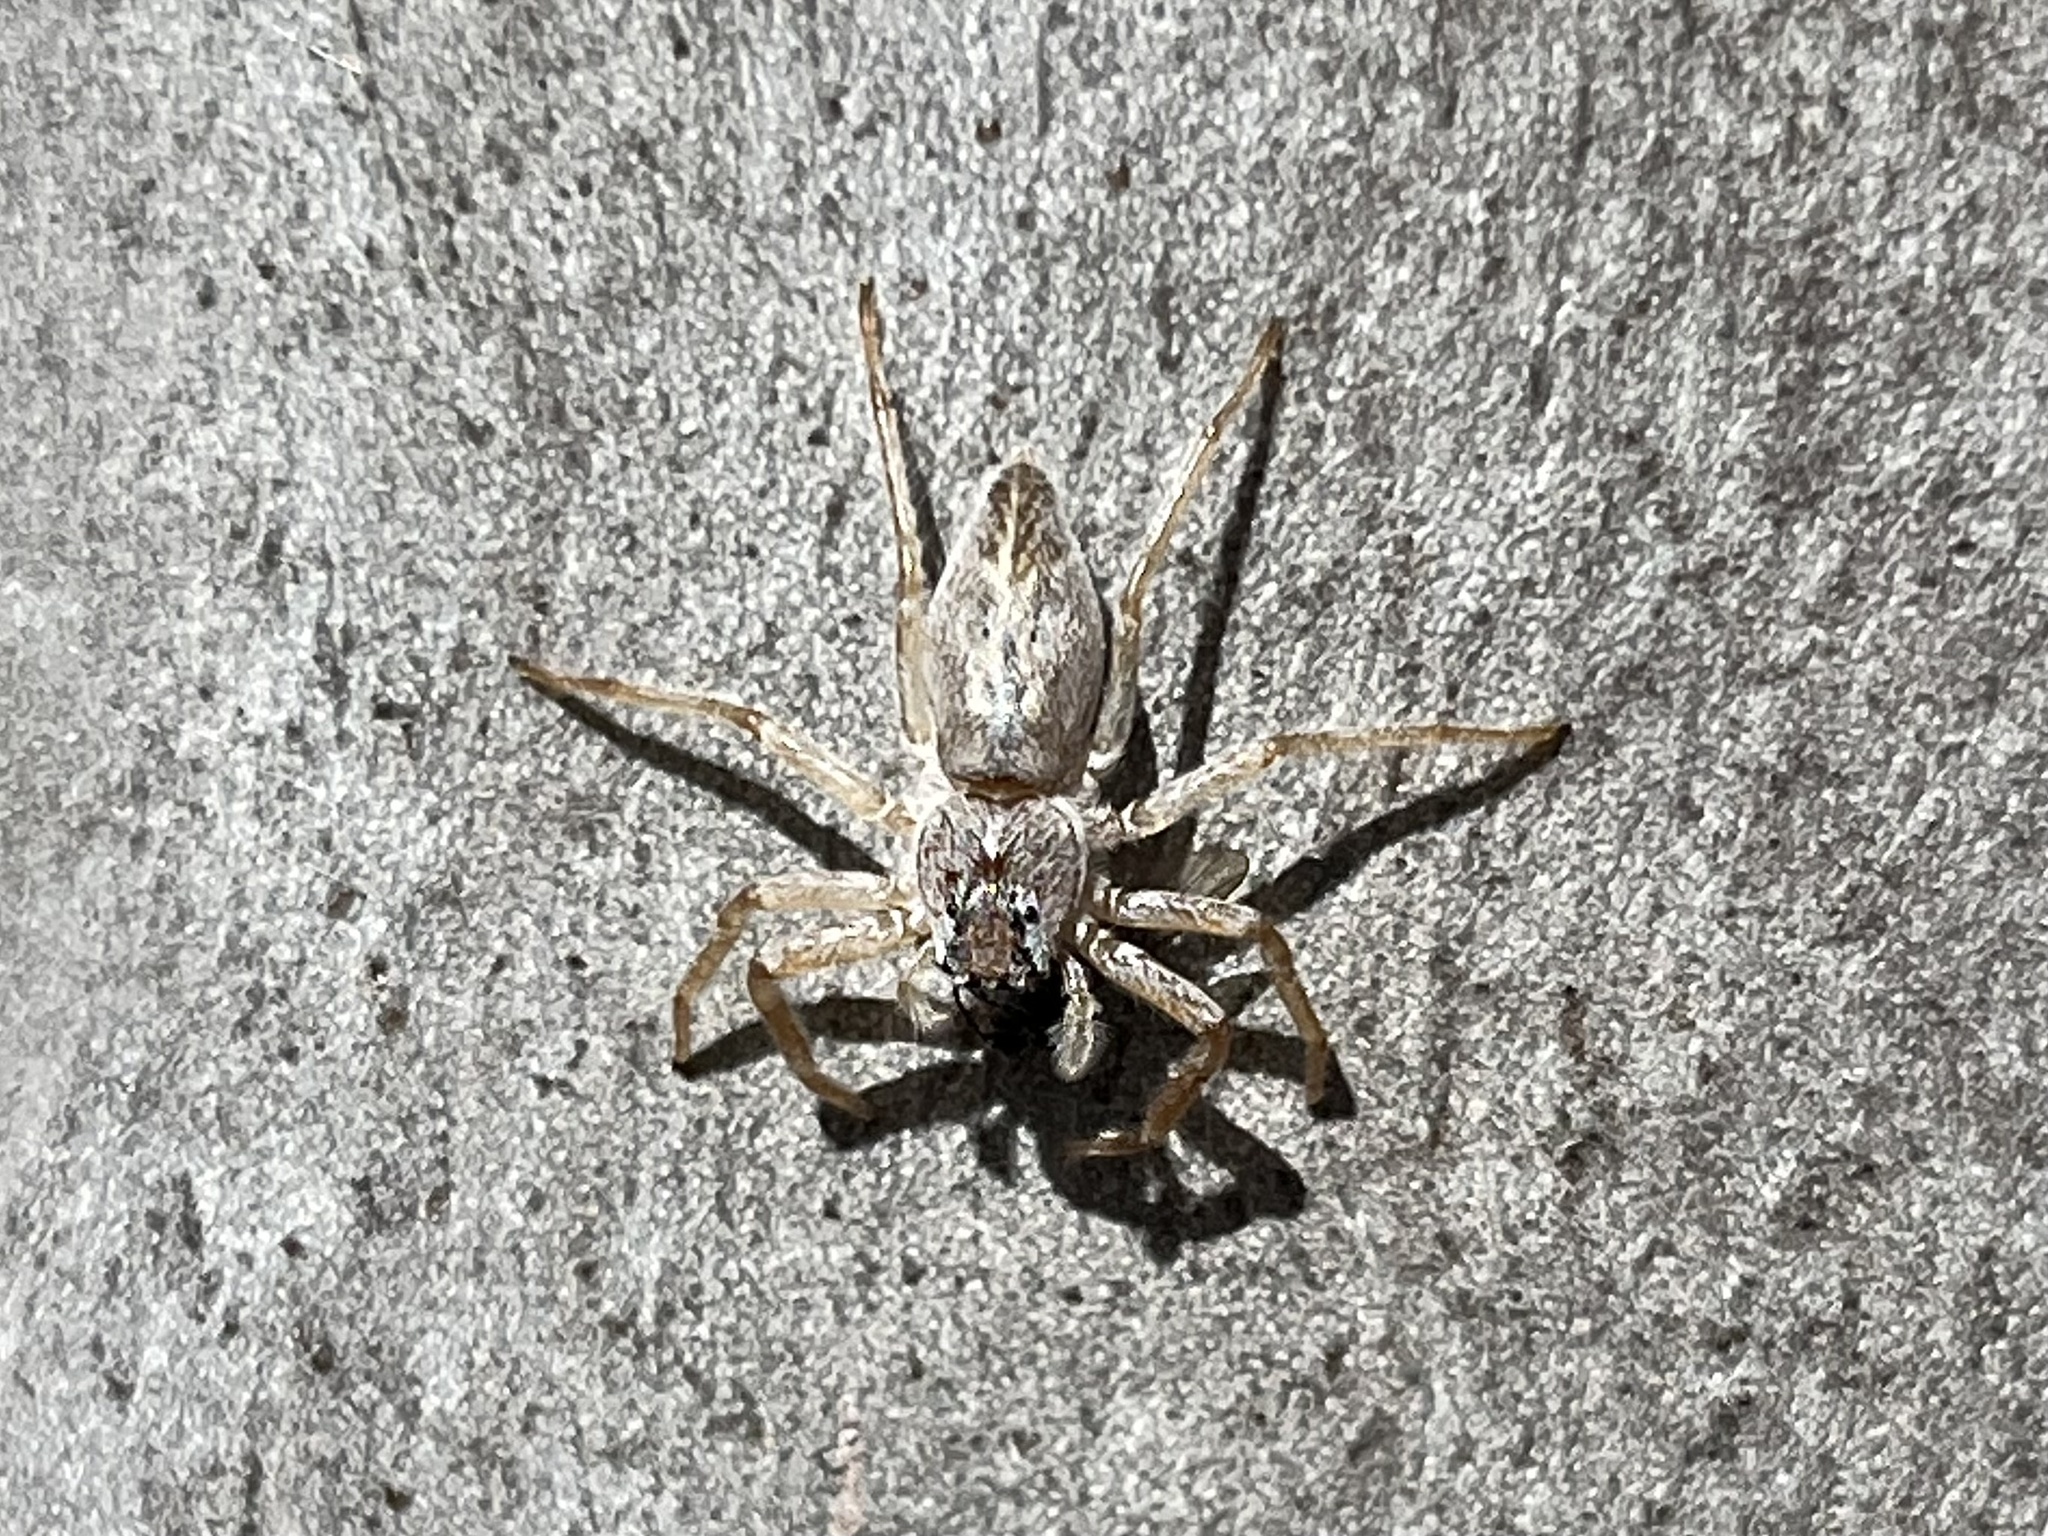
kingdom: Animalia
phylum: Arthropoda
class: Arachnida
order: Araneae
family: Salticidae
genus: Arasia
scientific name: Arasia mollicoma
